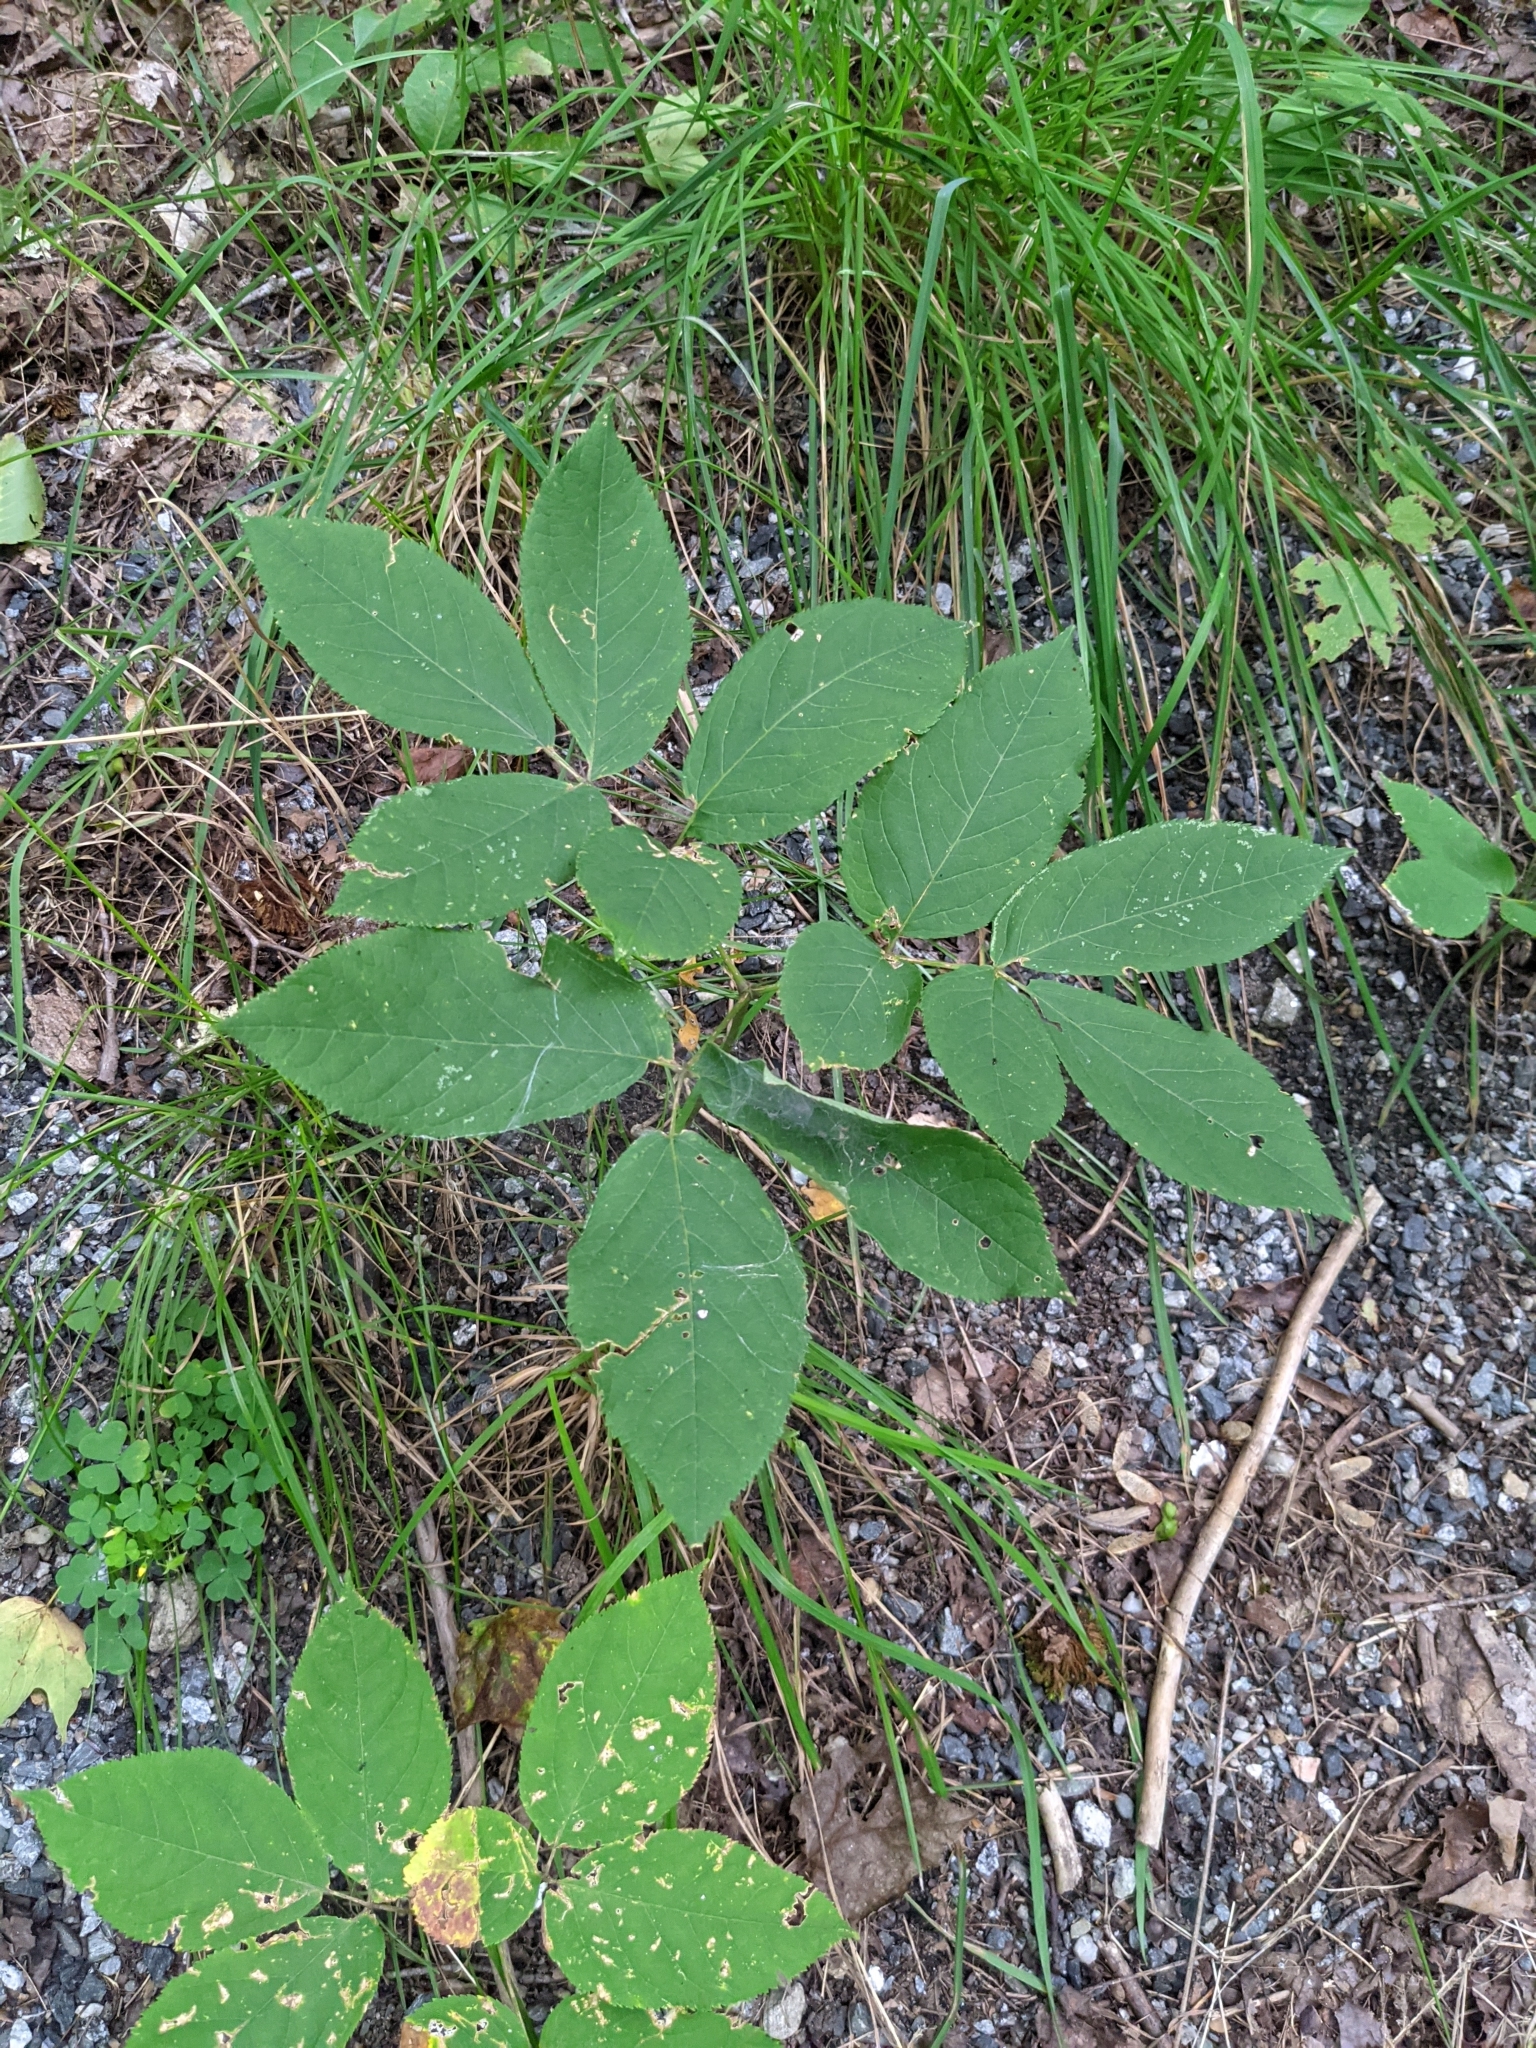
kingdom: Plantae
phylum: Tracheophyta
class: Magnoliopsida
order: Apiales
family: Araliaceae
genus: Aralia
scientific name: Aralia nudicaulis
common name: Wild sarsaparilla
